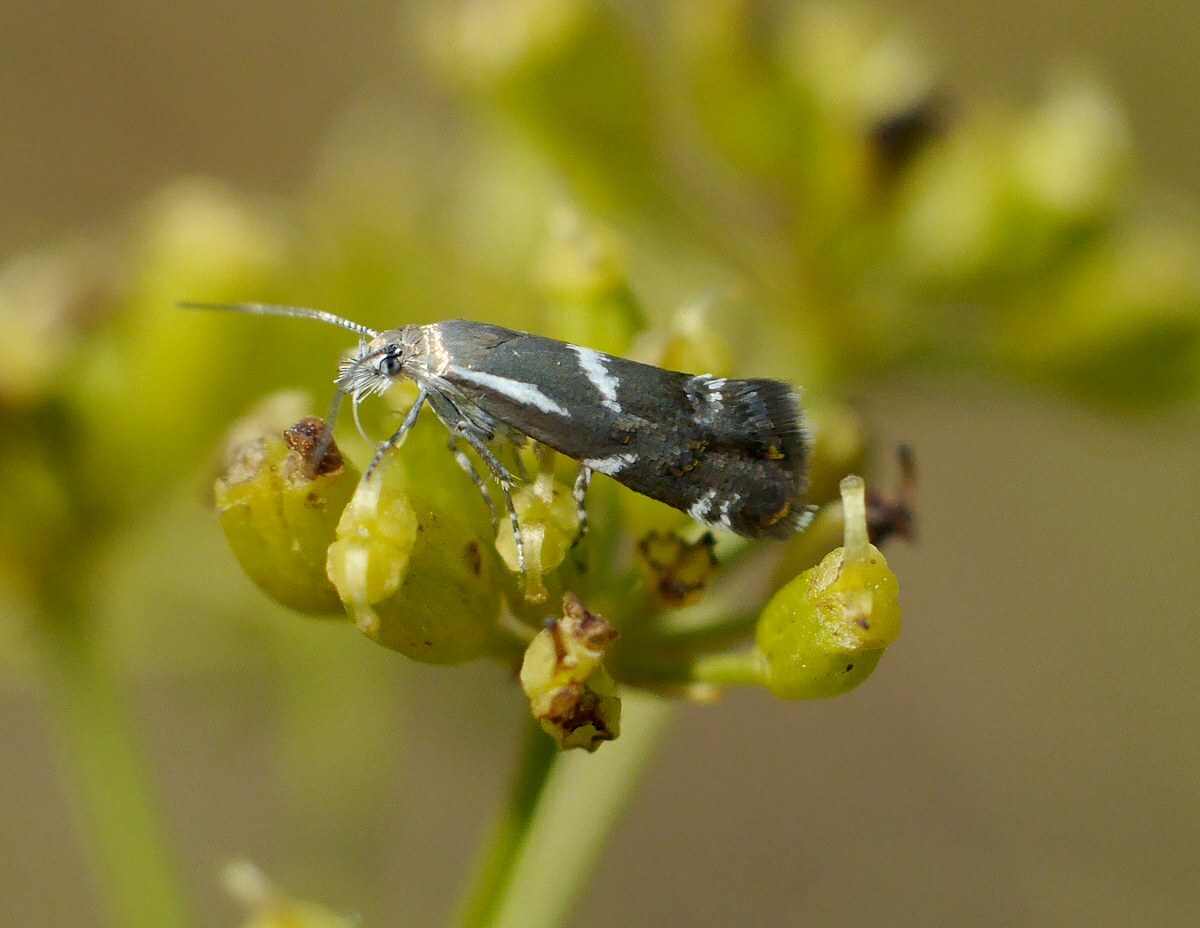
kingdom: Animalia
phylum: Arthropoda
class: Insecta
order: Lepidoptera
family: Choreutidae
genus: Millieria
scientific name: Millieria dolosalis
